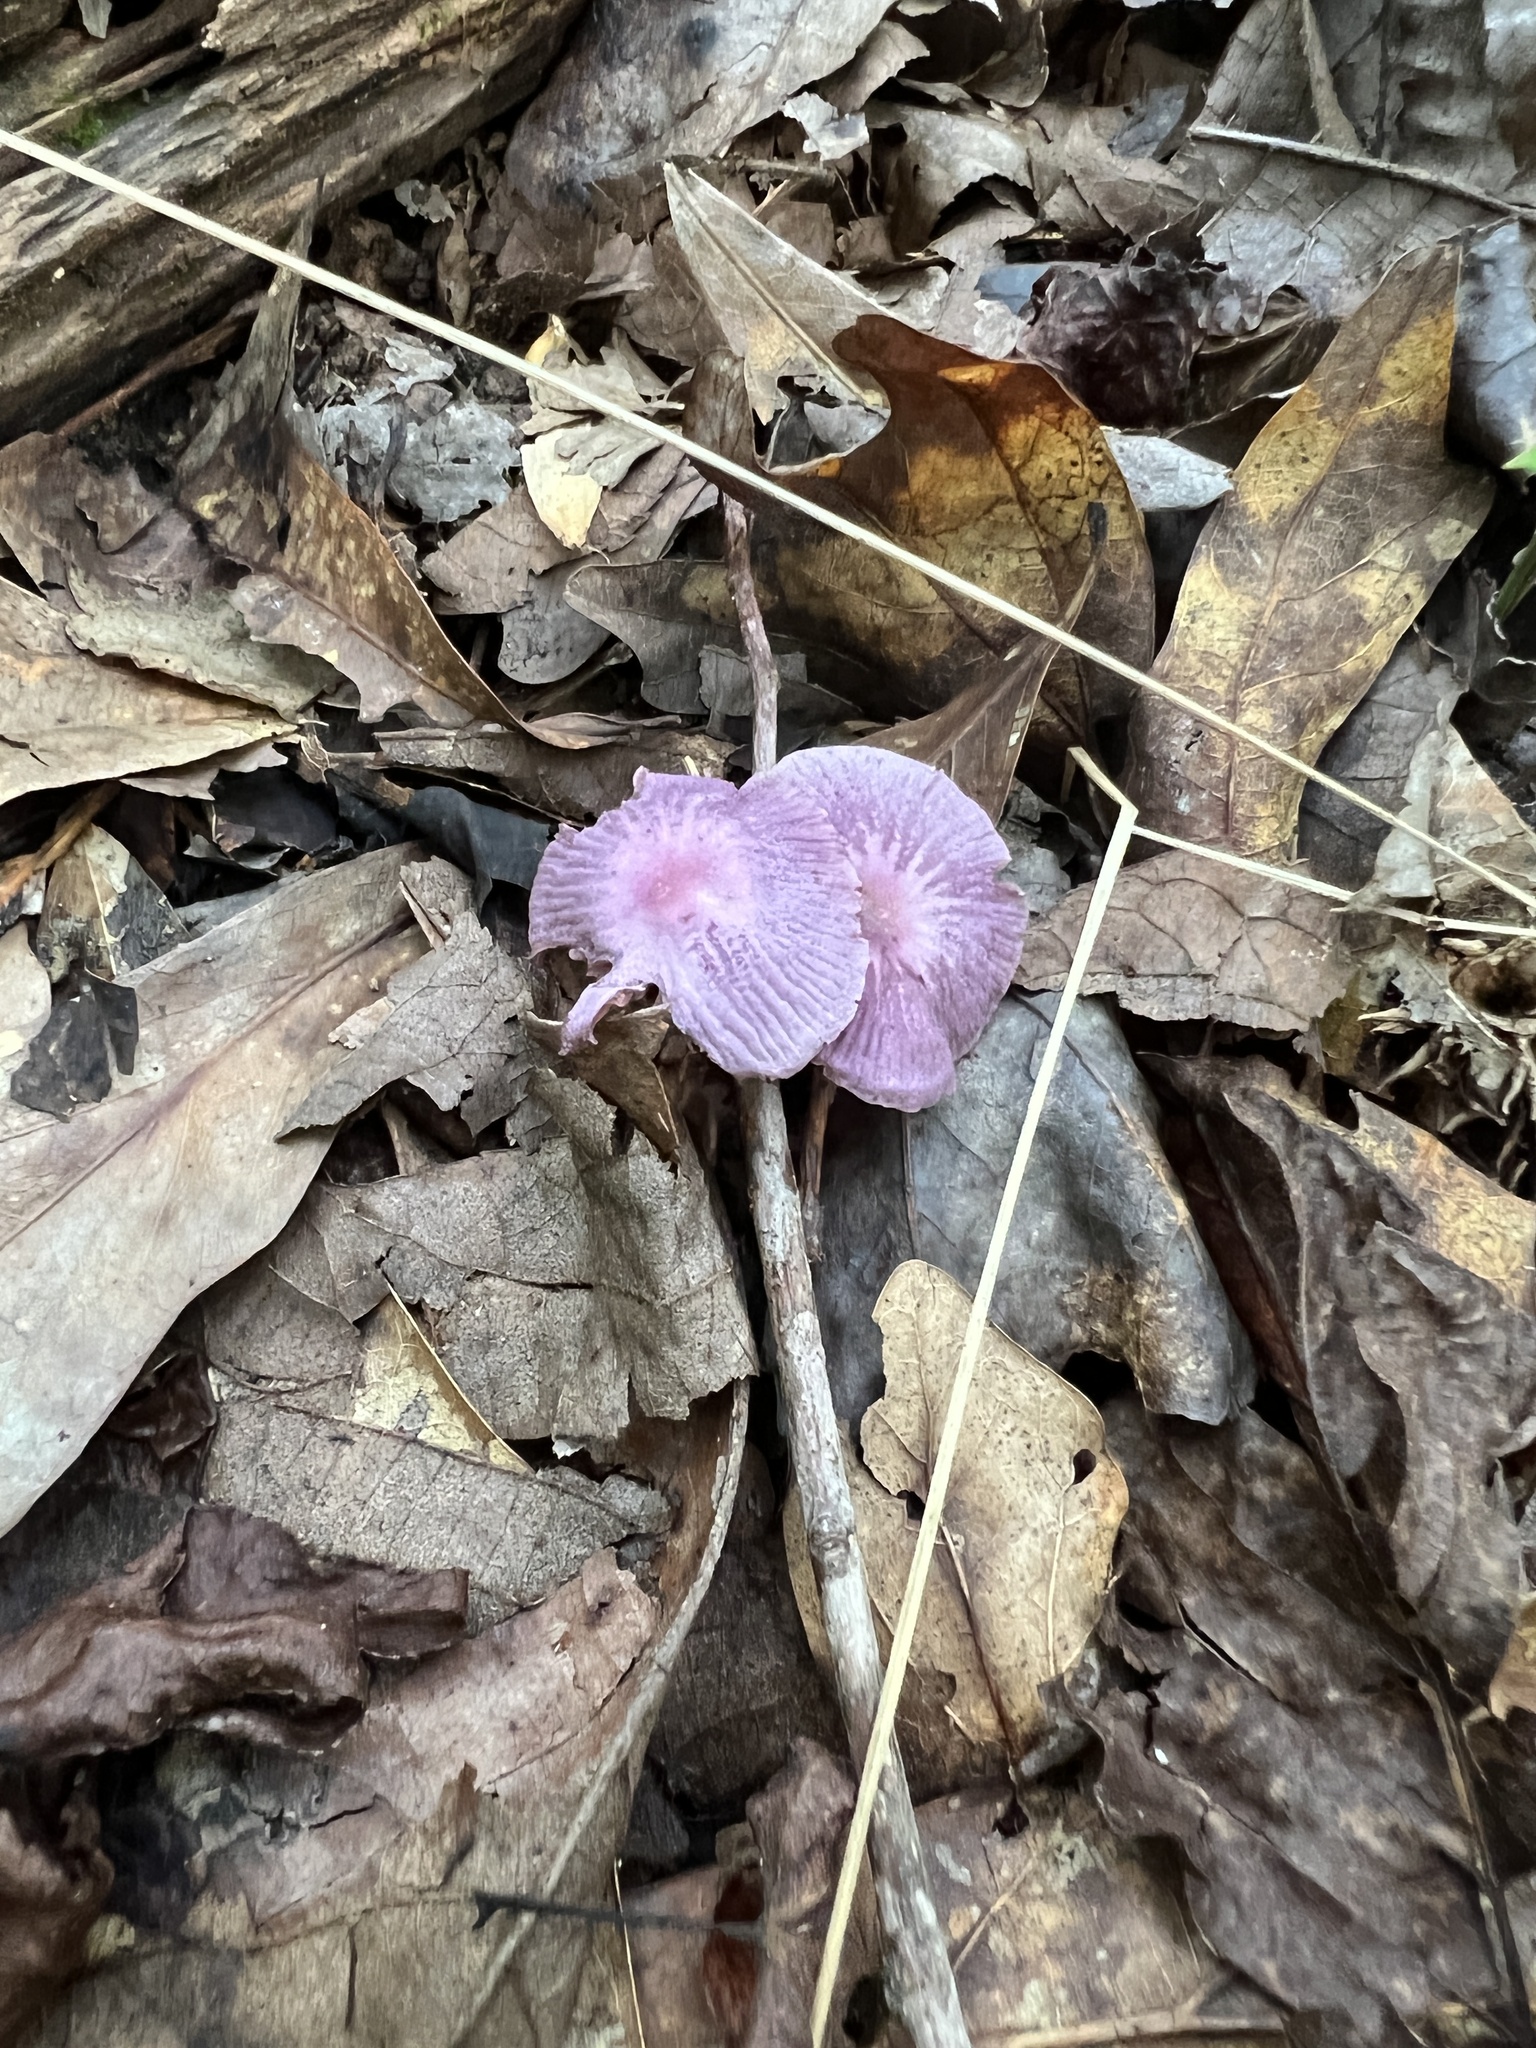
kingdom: Fungi
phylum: Basidiomycota
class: Agaricomycetes
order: Agaricales
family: Omphalotaceae
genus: Gymnopus
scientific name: Gymnopus iocephalus
